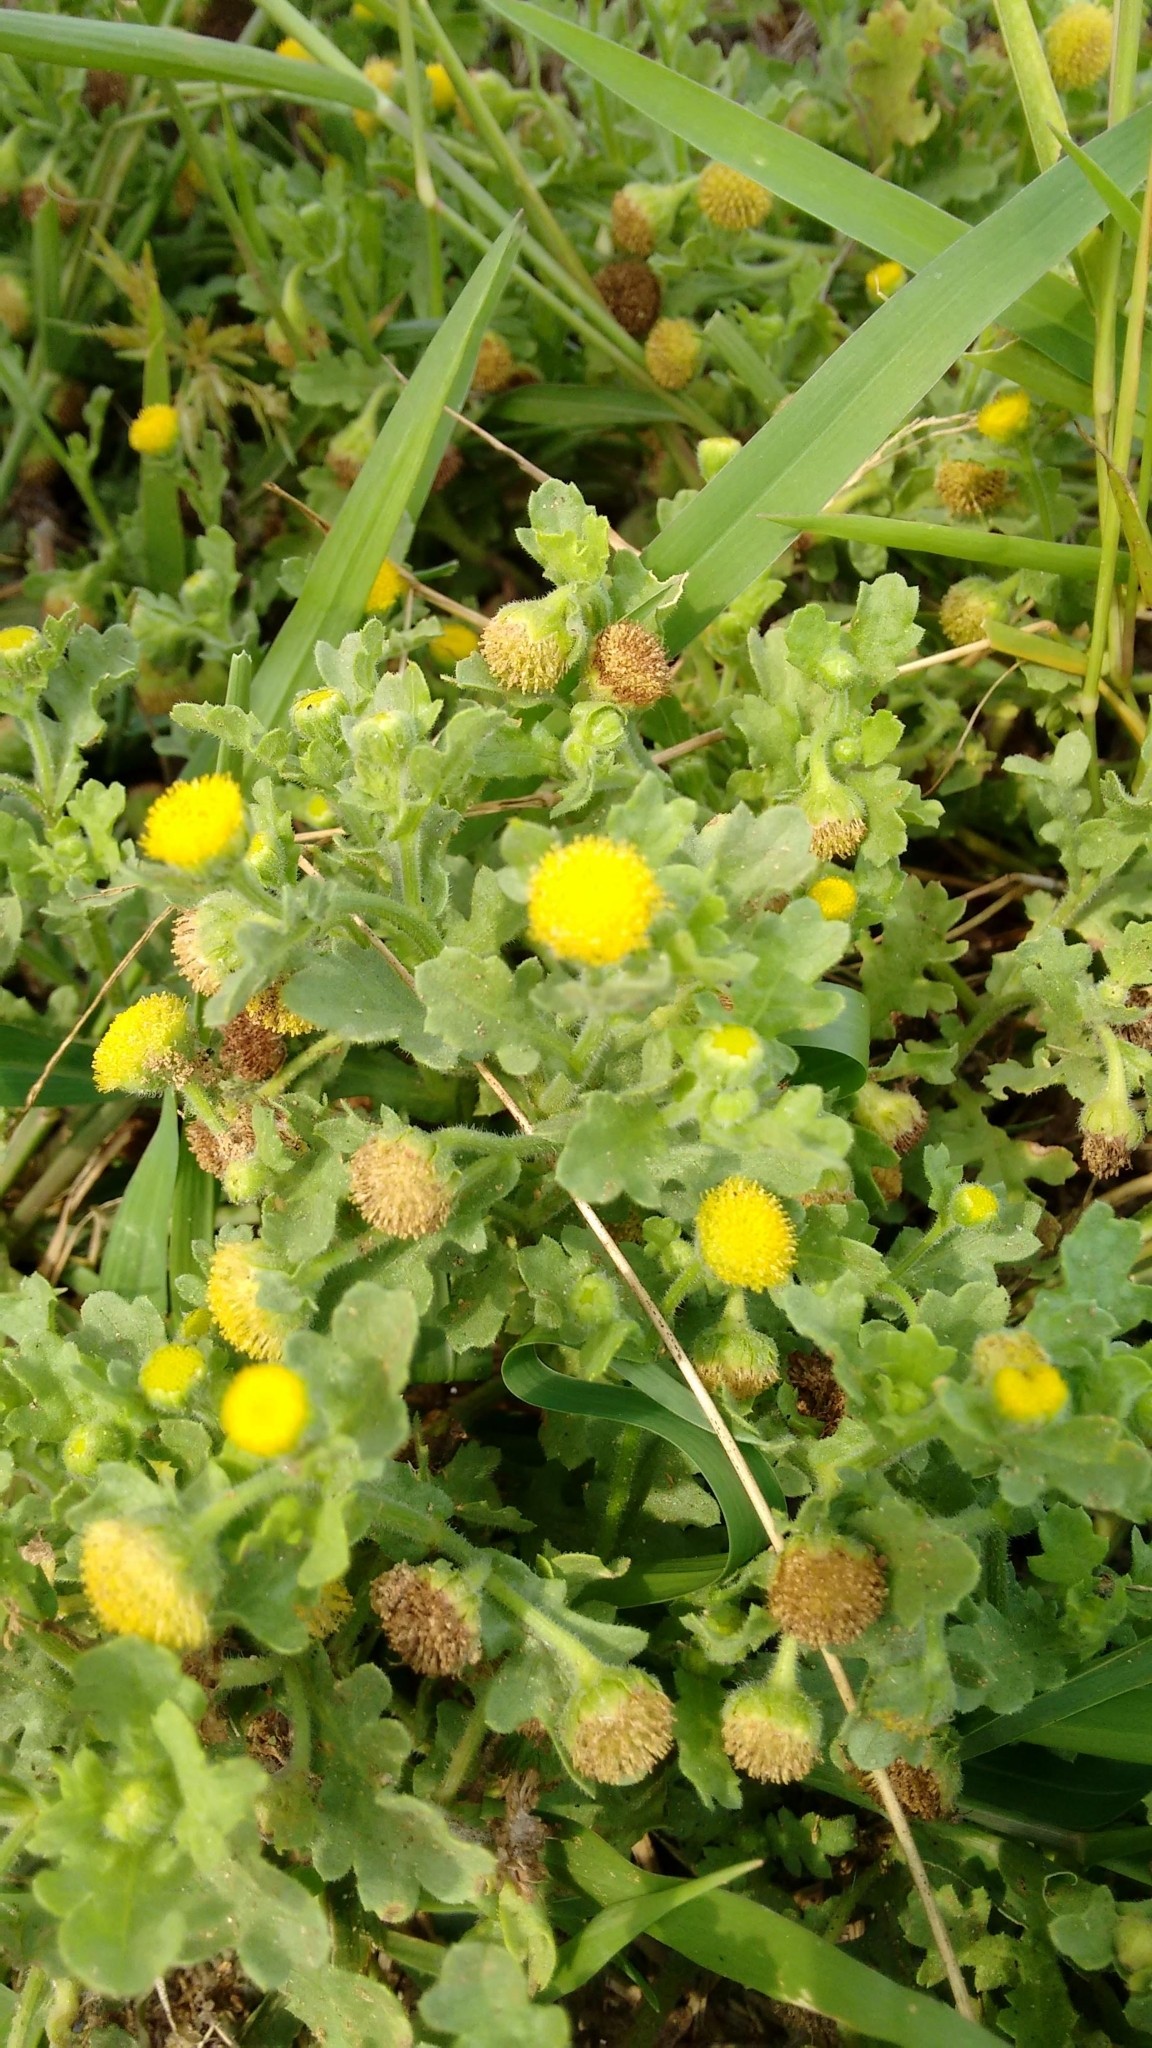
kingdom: Plantae
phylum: Tracheophyta
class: Magnoliopsida
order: Asterales
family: Asteraceae
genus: Grangea
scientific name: Grangea maderaspatana
